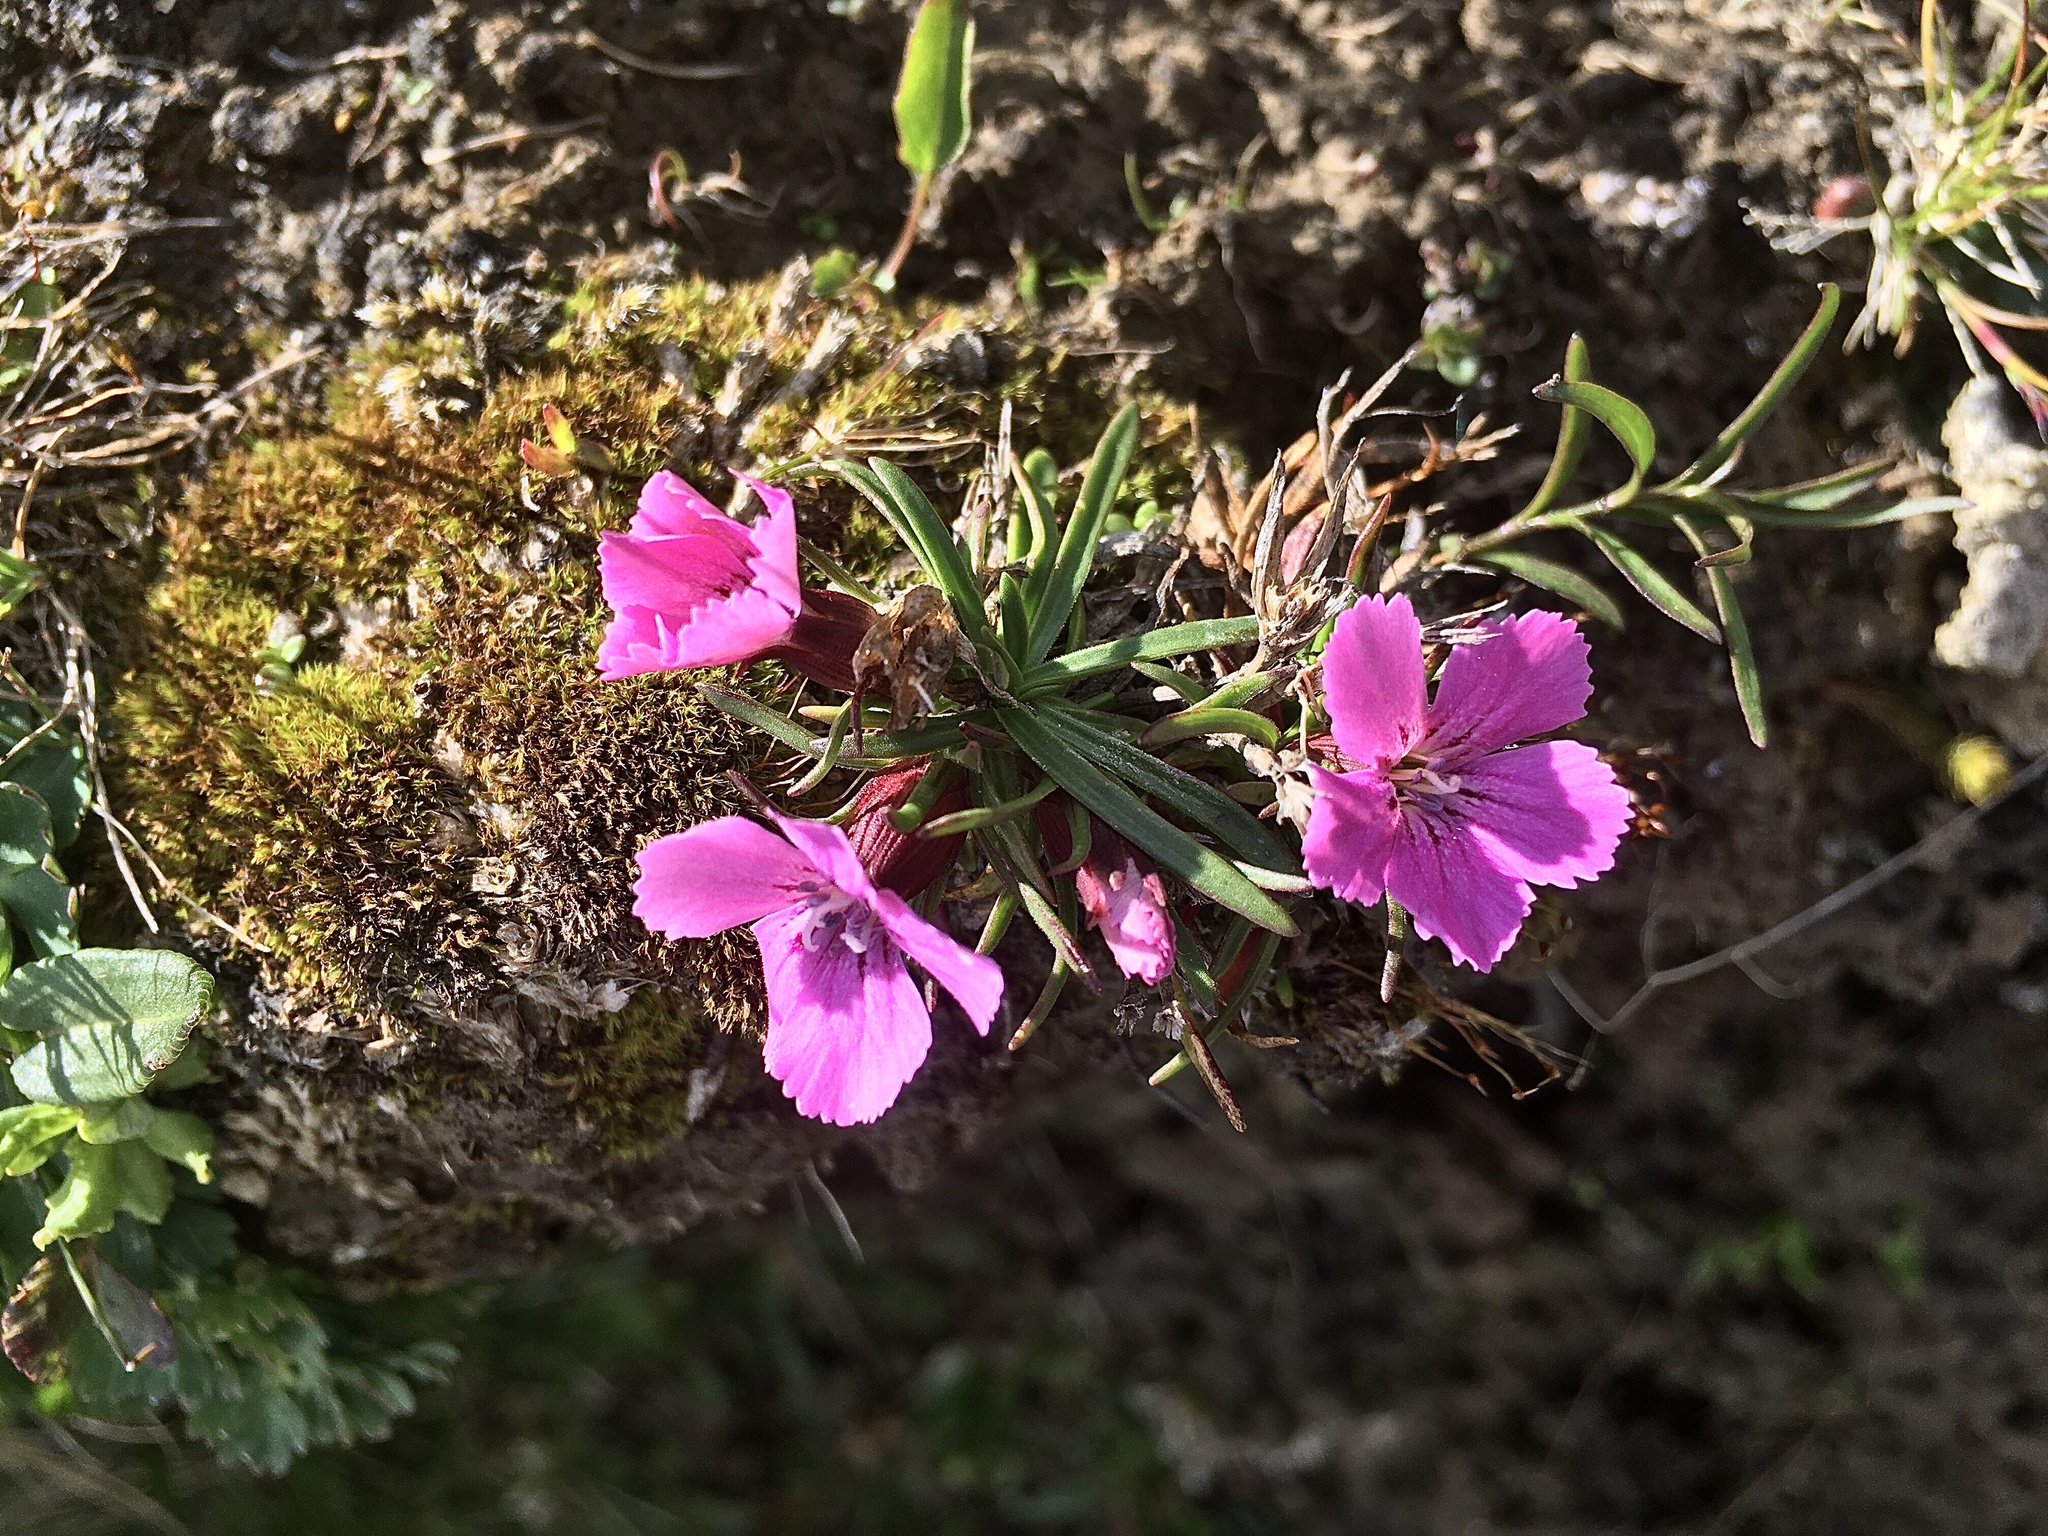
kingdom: Plantae
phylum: Tracheophyta
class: Magnoliopsida
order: Caryophyllales
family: Caryophyllaceae
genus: Dianthus
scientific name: Dianthus glacialis
